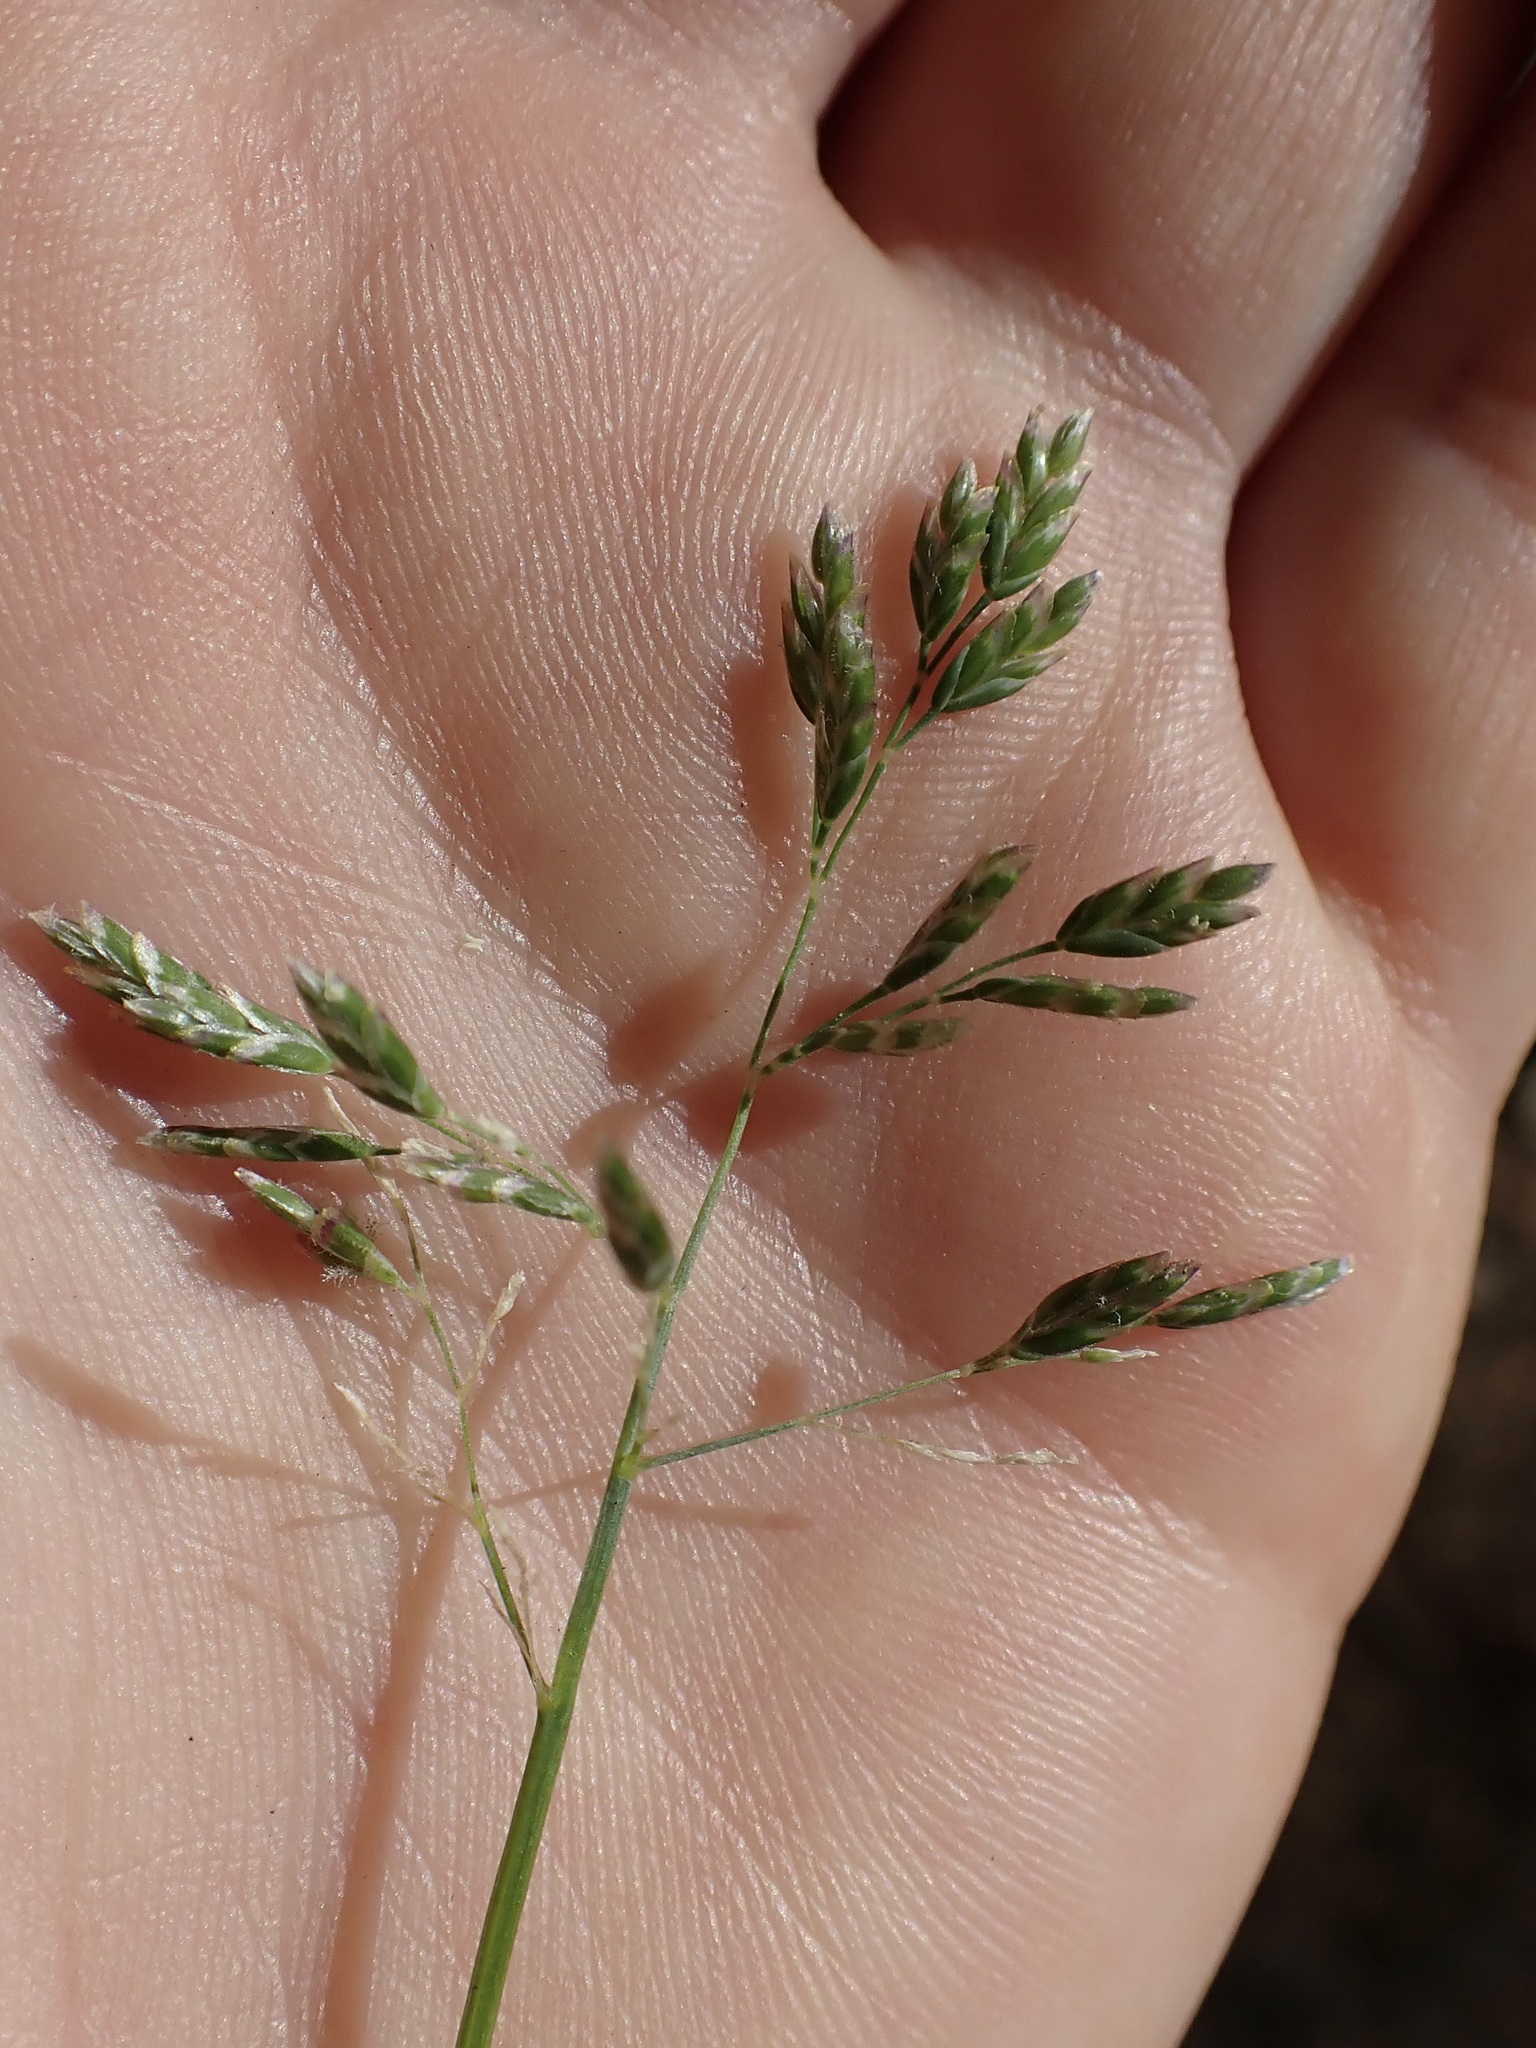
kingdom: Plantae
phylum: Tracheophyta
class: Liliopsida
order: Poales
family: Poaceae
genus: Poa
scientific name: Poa annua
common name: Annual bluegrass
